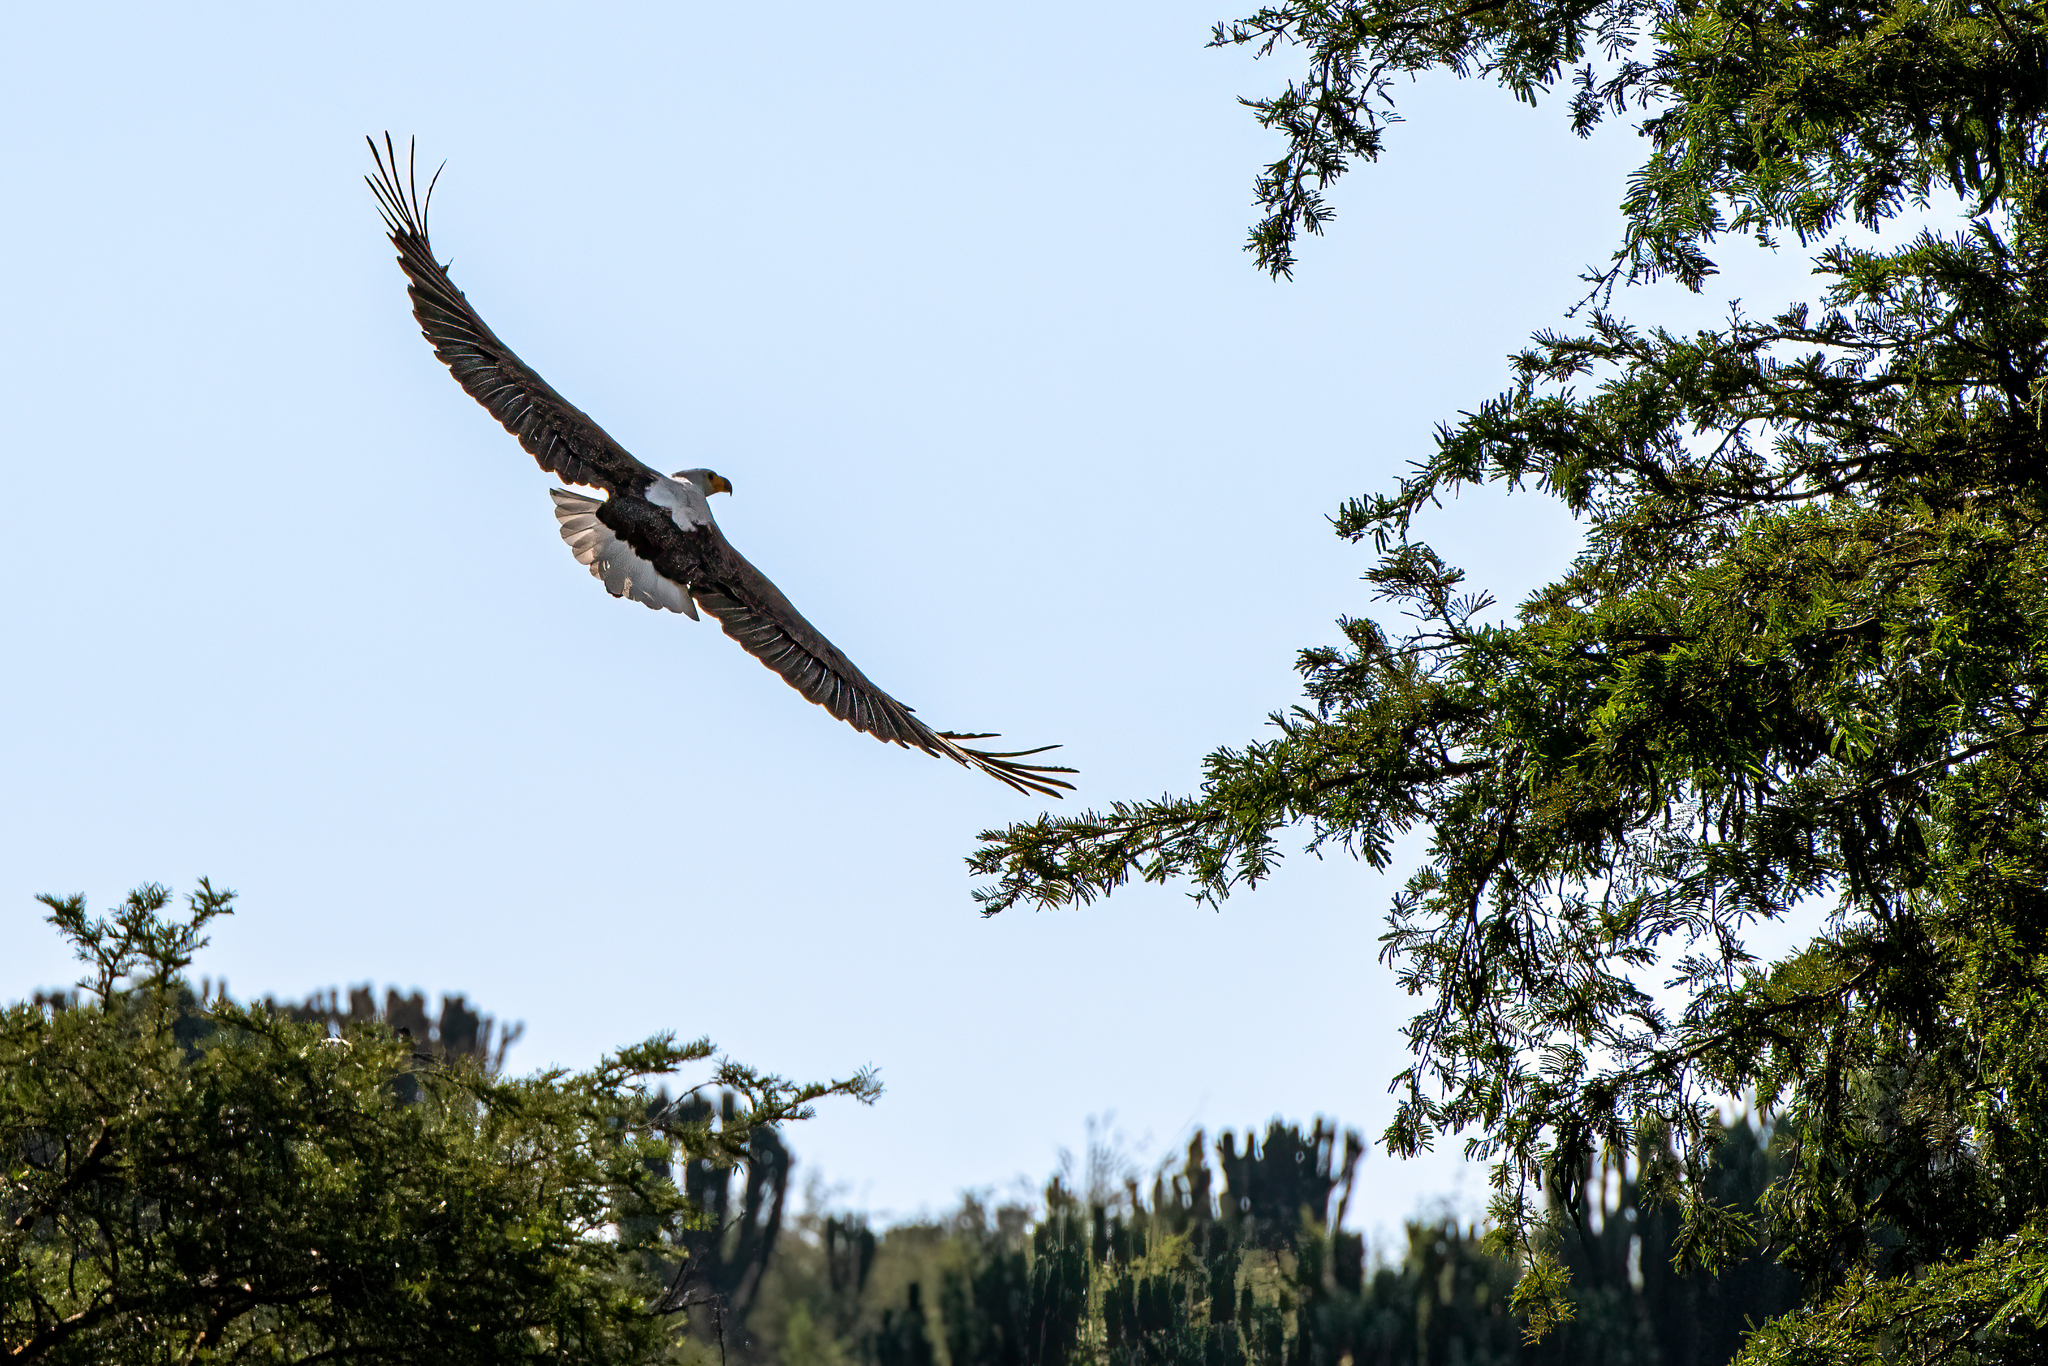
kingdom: Animalia
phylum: Chordata
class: Aves
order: Accipitriformes
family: Accipitridae
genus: Haliaeetus
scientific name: Haliaeetus vocifer
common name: African fish eagle
